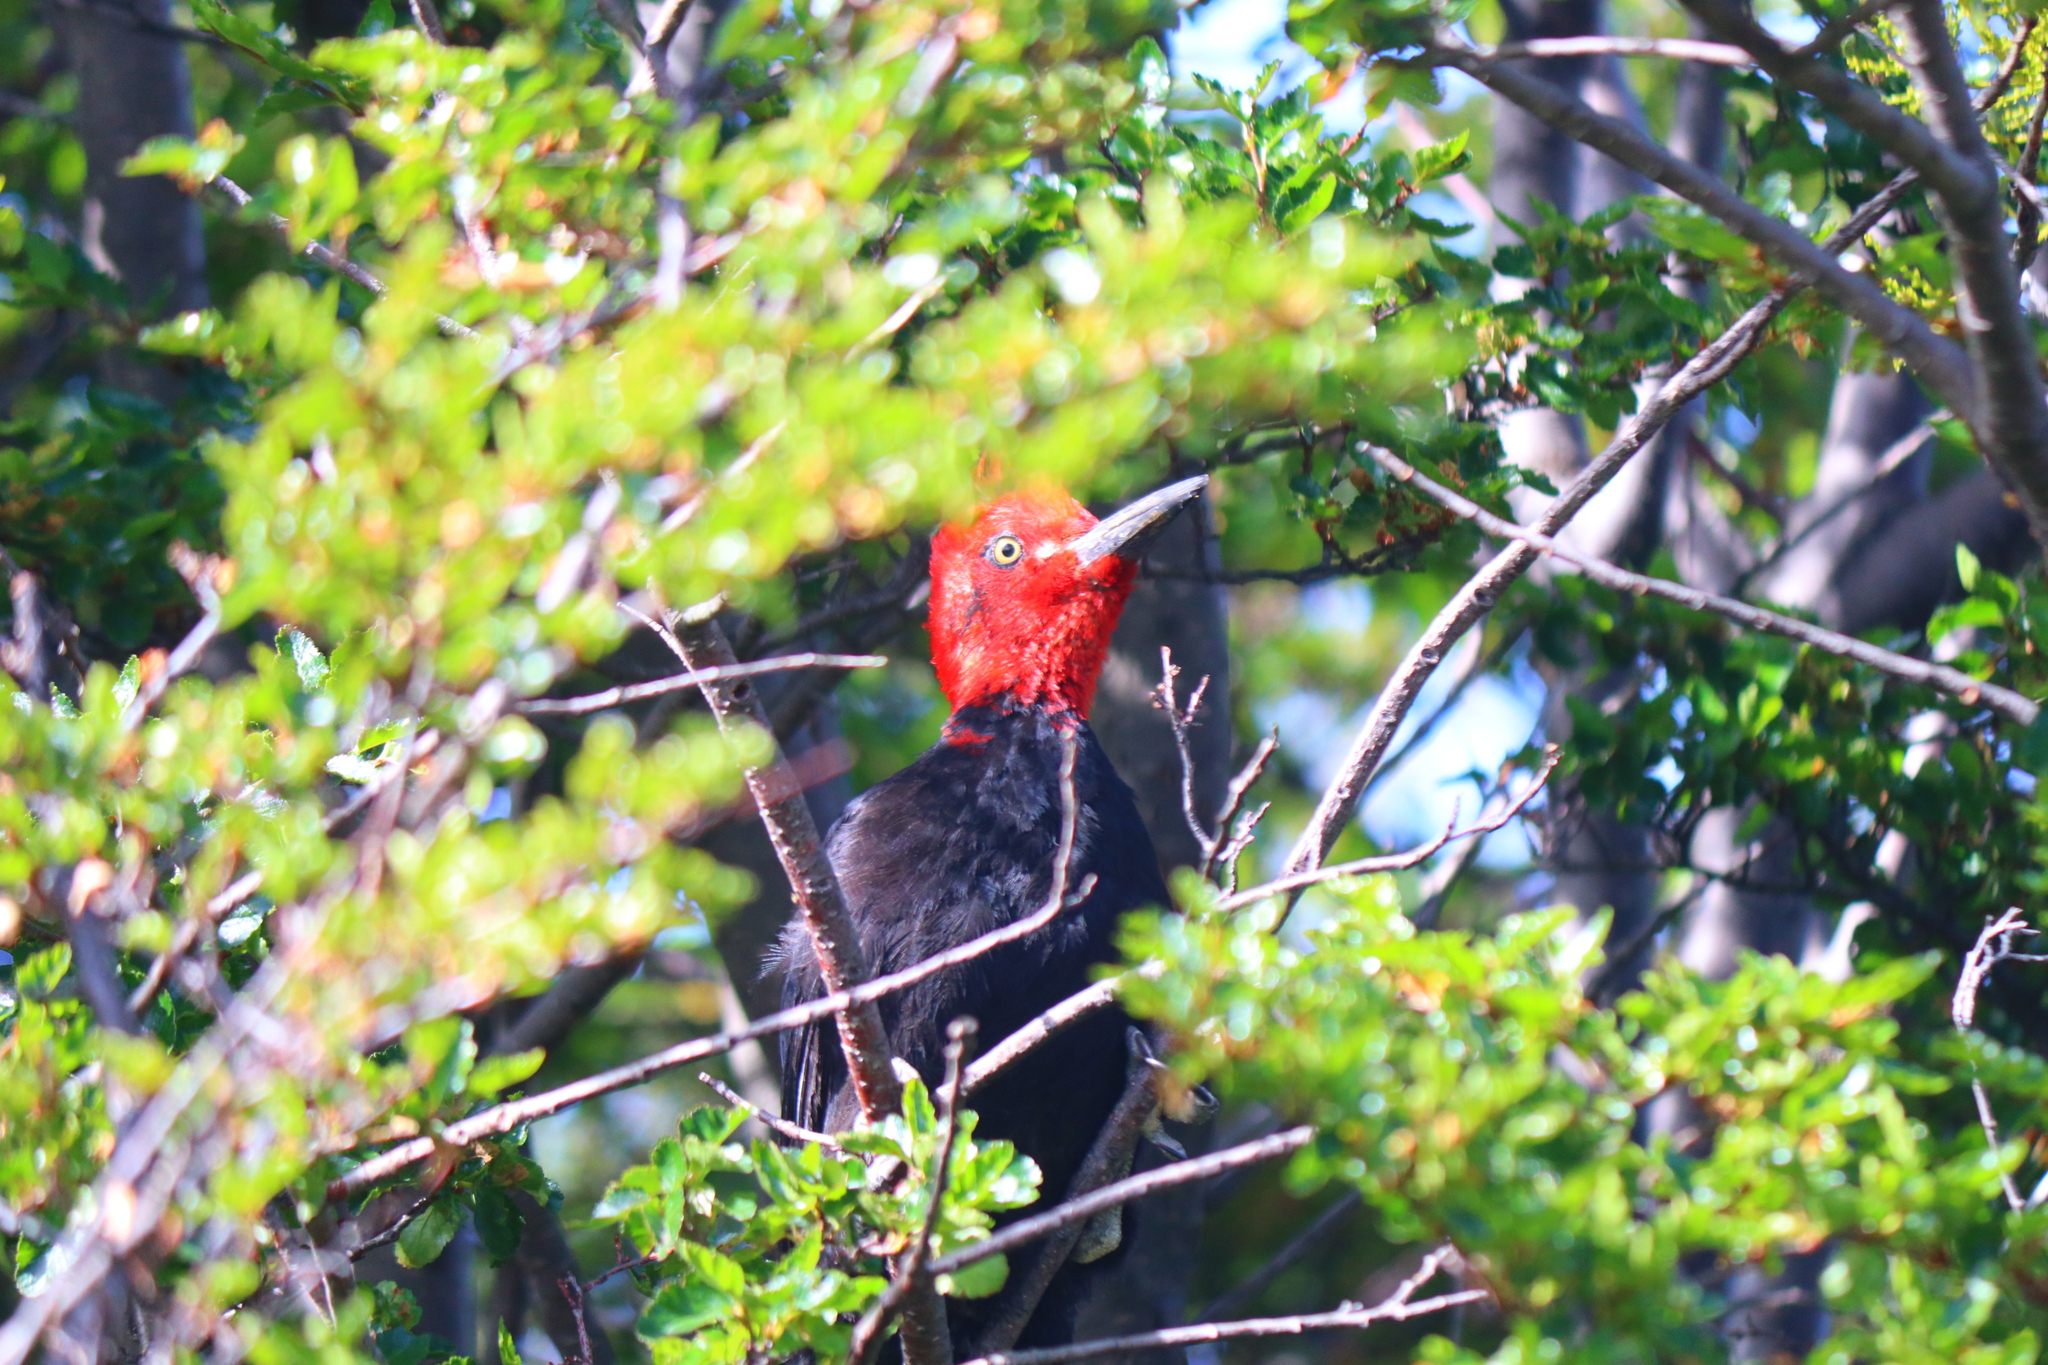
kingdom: Animalia
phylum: Chordata
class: Aves
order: Piciformes
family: Picidae
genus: Campephilus
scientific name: Campephilus magellanicus
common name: Magellanic woodpecker
